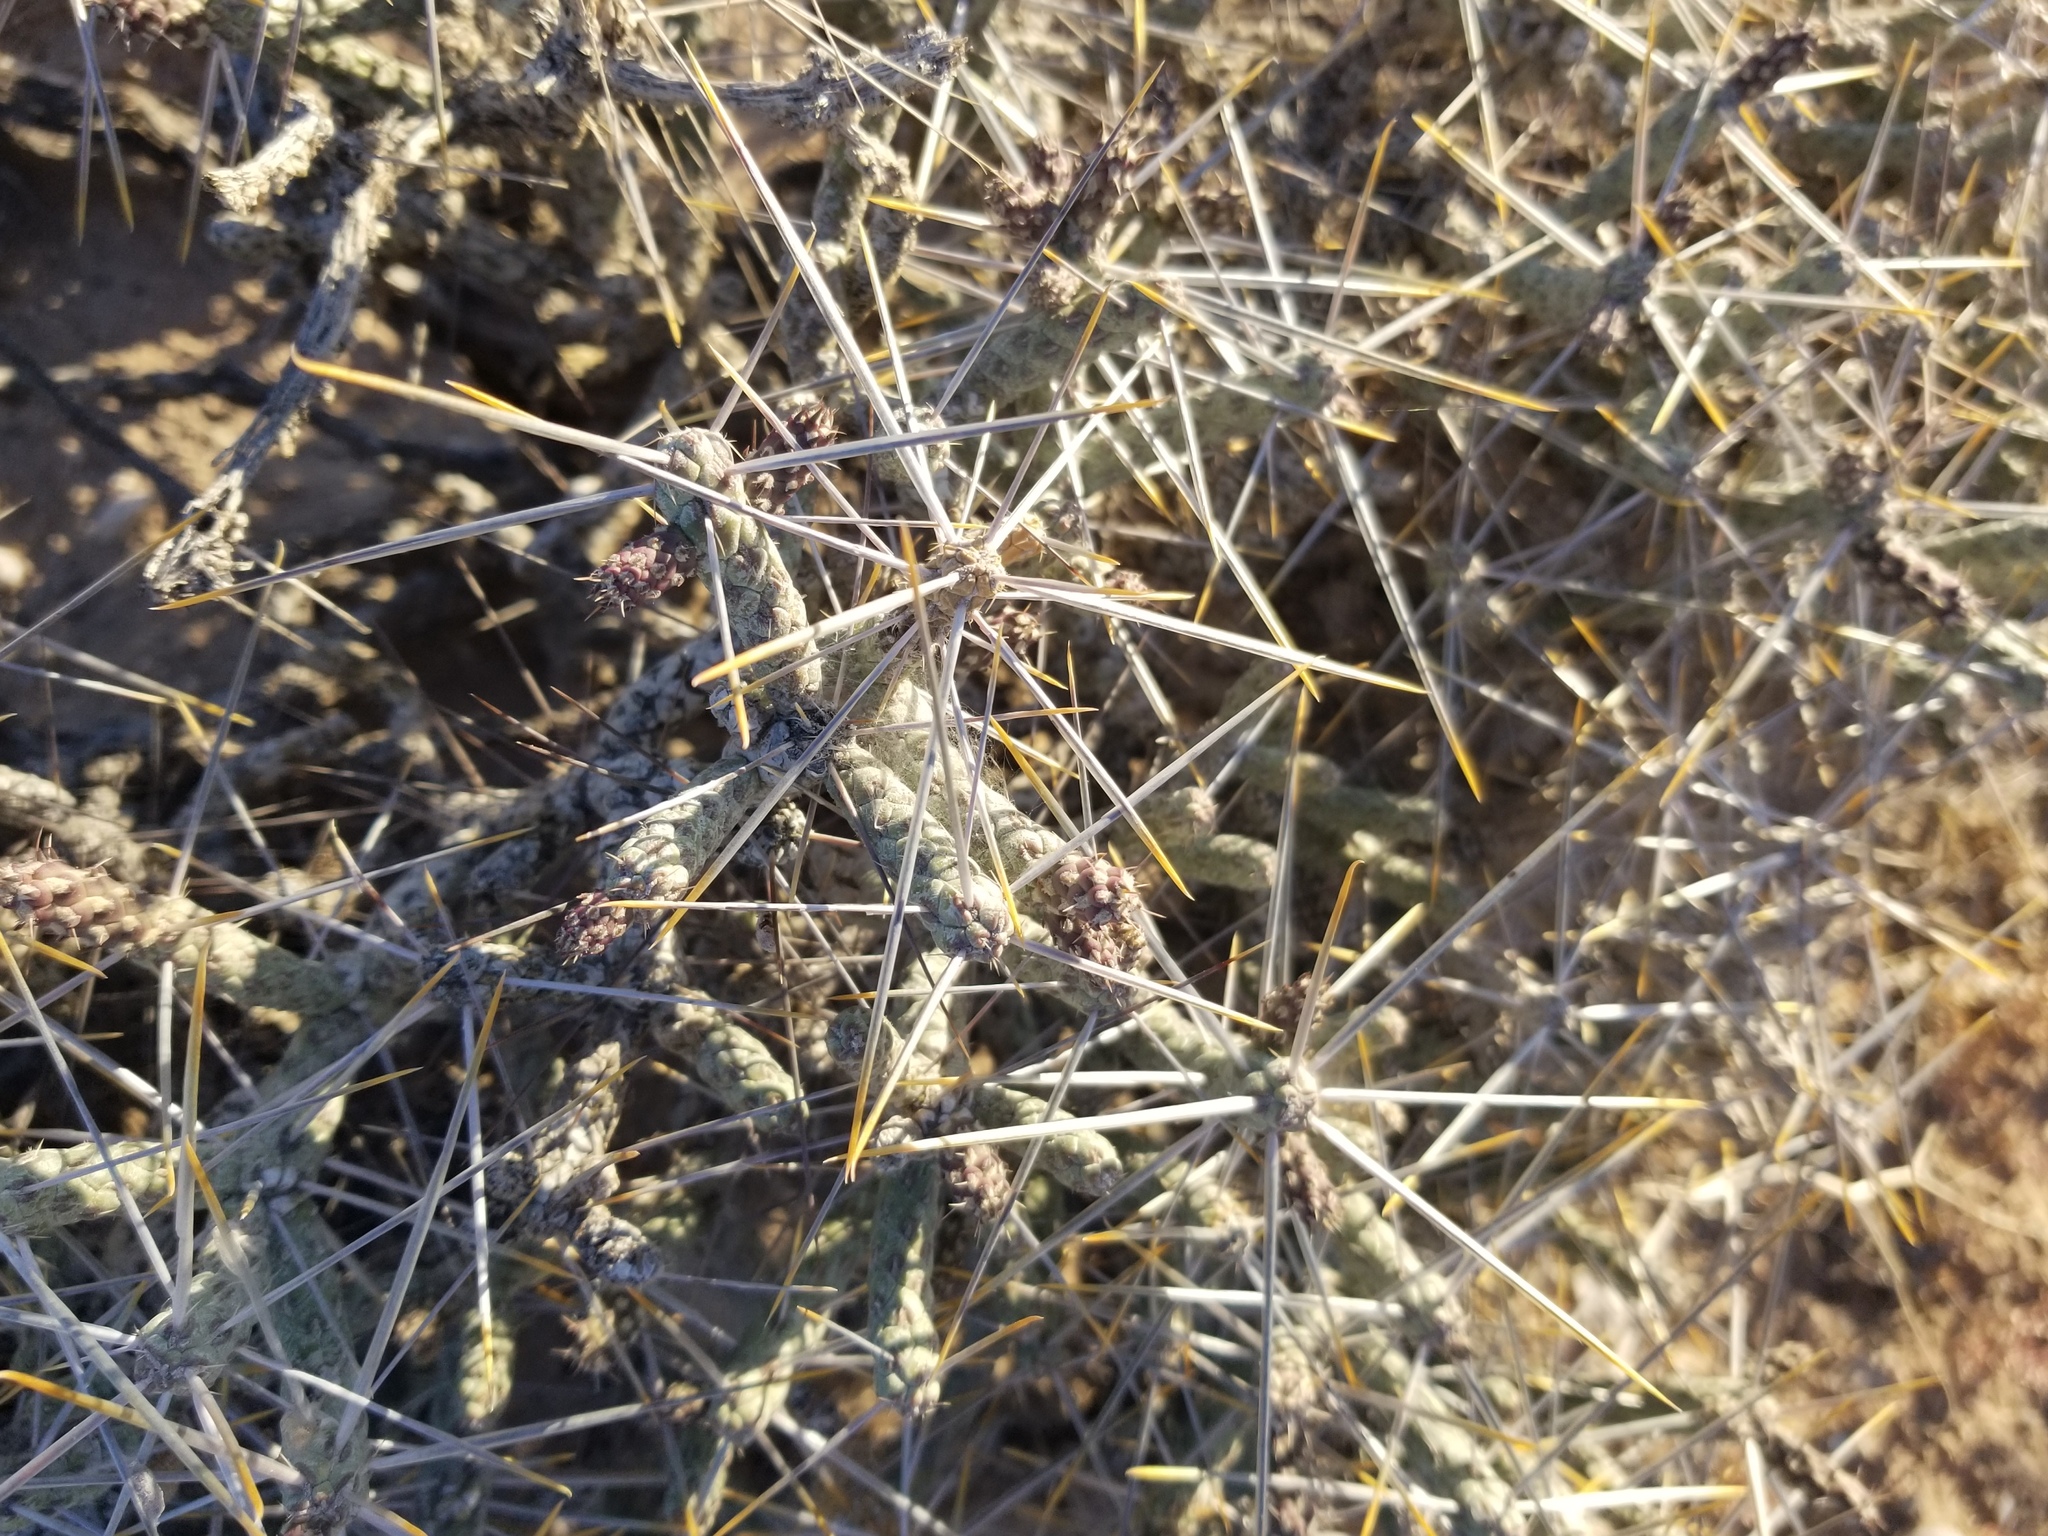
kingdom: Plantae
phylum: Tracheophyta
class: Magnoliopsida
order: Caryophyllales
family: Cactaceae
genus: Cylindropuntia
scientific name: Cylindropuntia ramosissima
